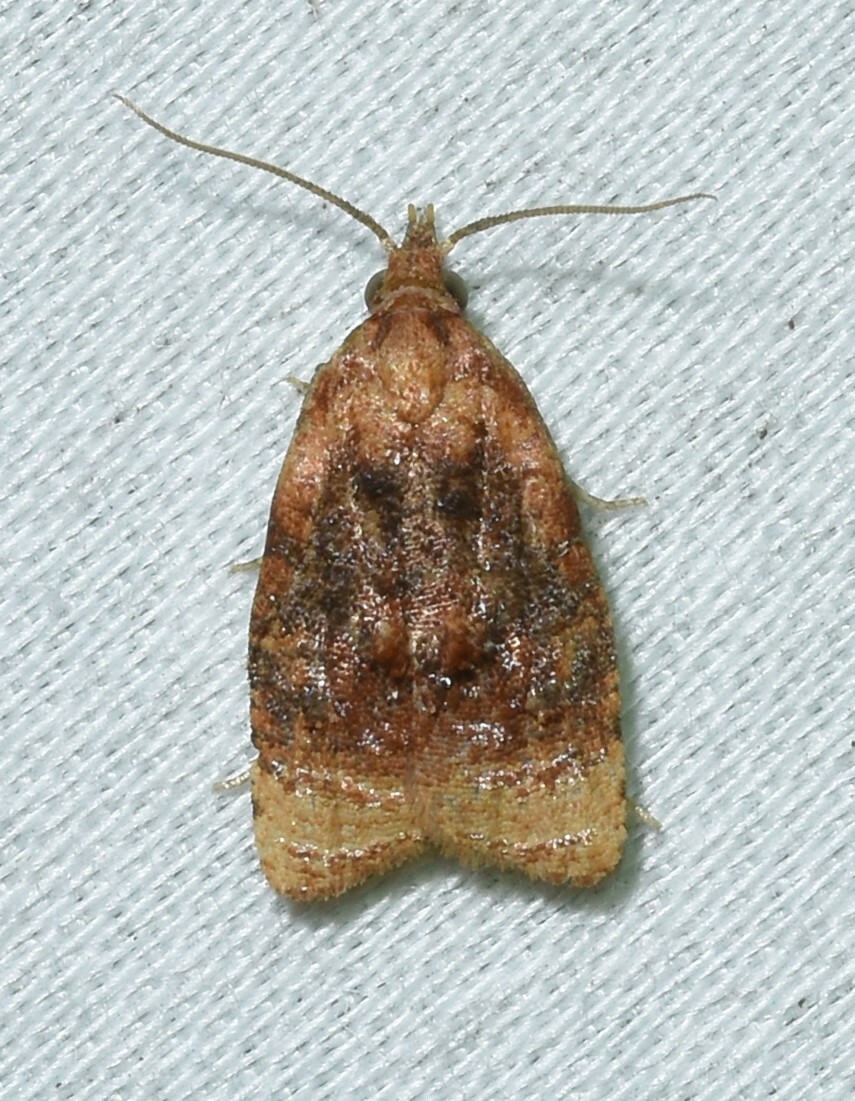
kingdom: Animalia
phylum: Arthropoda
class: Insecta
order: Lepidoptera
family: Tortricidae
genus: Platynota
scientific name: Platynota flavedana
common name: Black-shaded platynota moth
